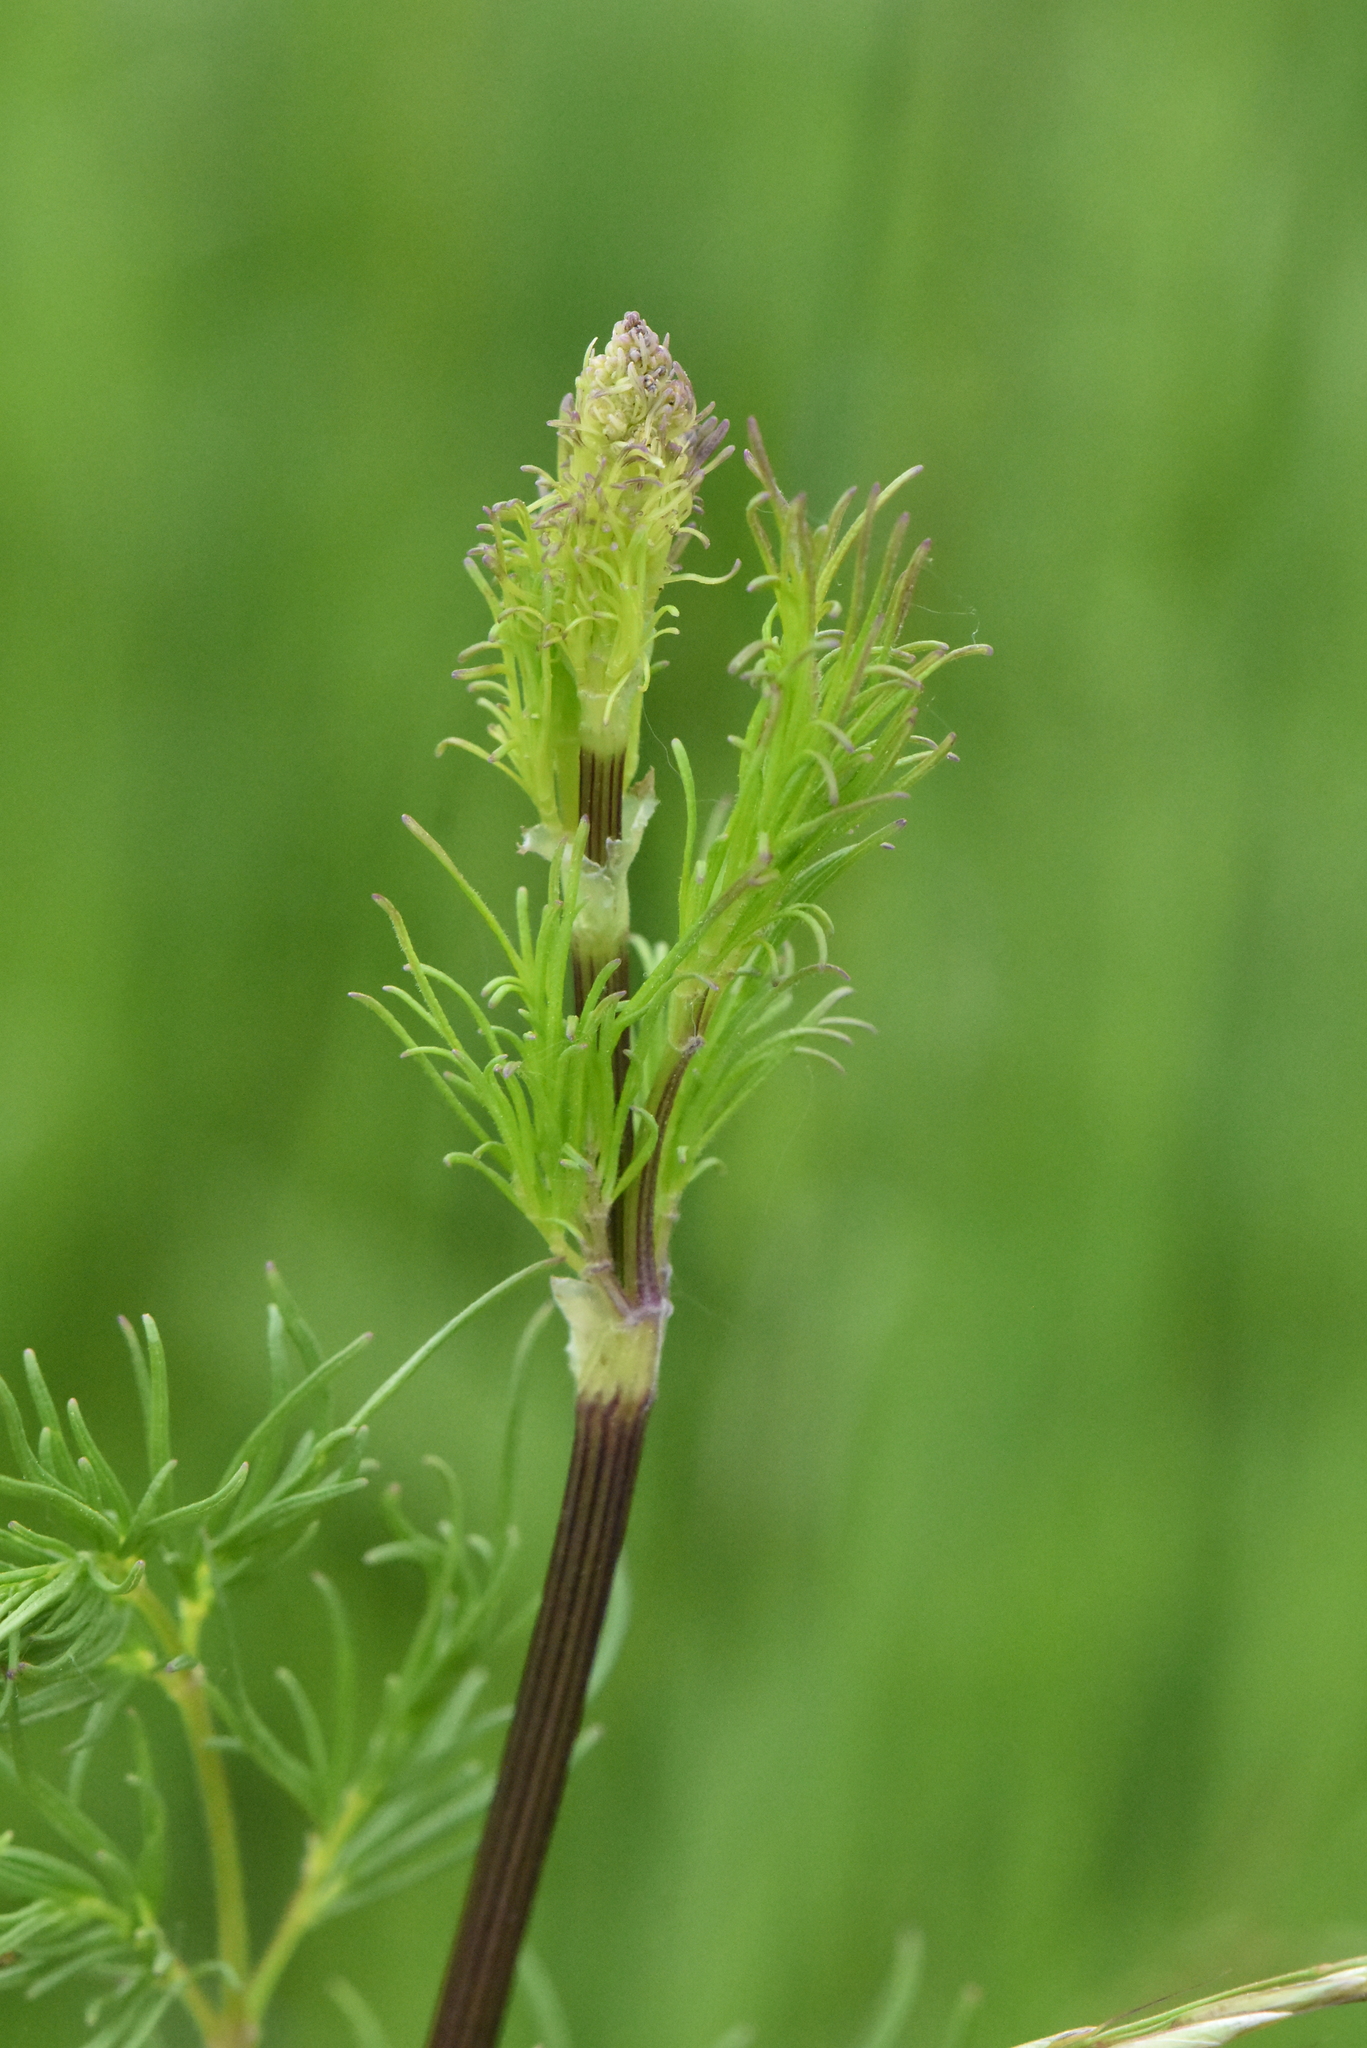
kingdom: Plantae
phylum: Tracheophyta
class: Magnoliopsida
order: Ranunculales
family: Ranunculaceae
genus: Thalictrum
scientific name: Thalictrum lucidum
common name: Shining meadow-rue
